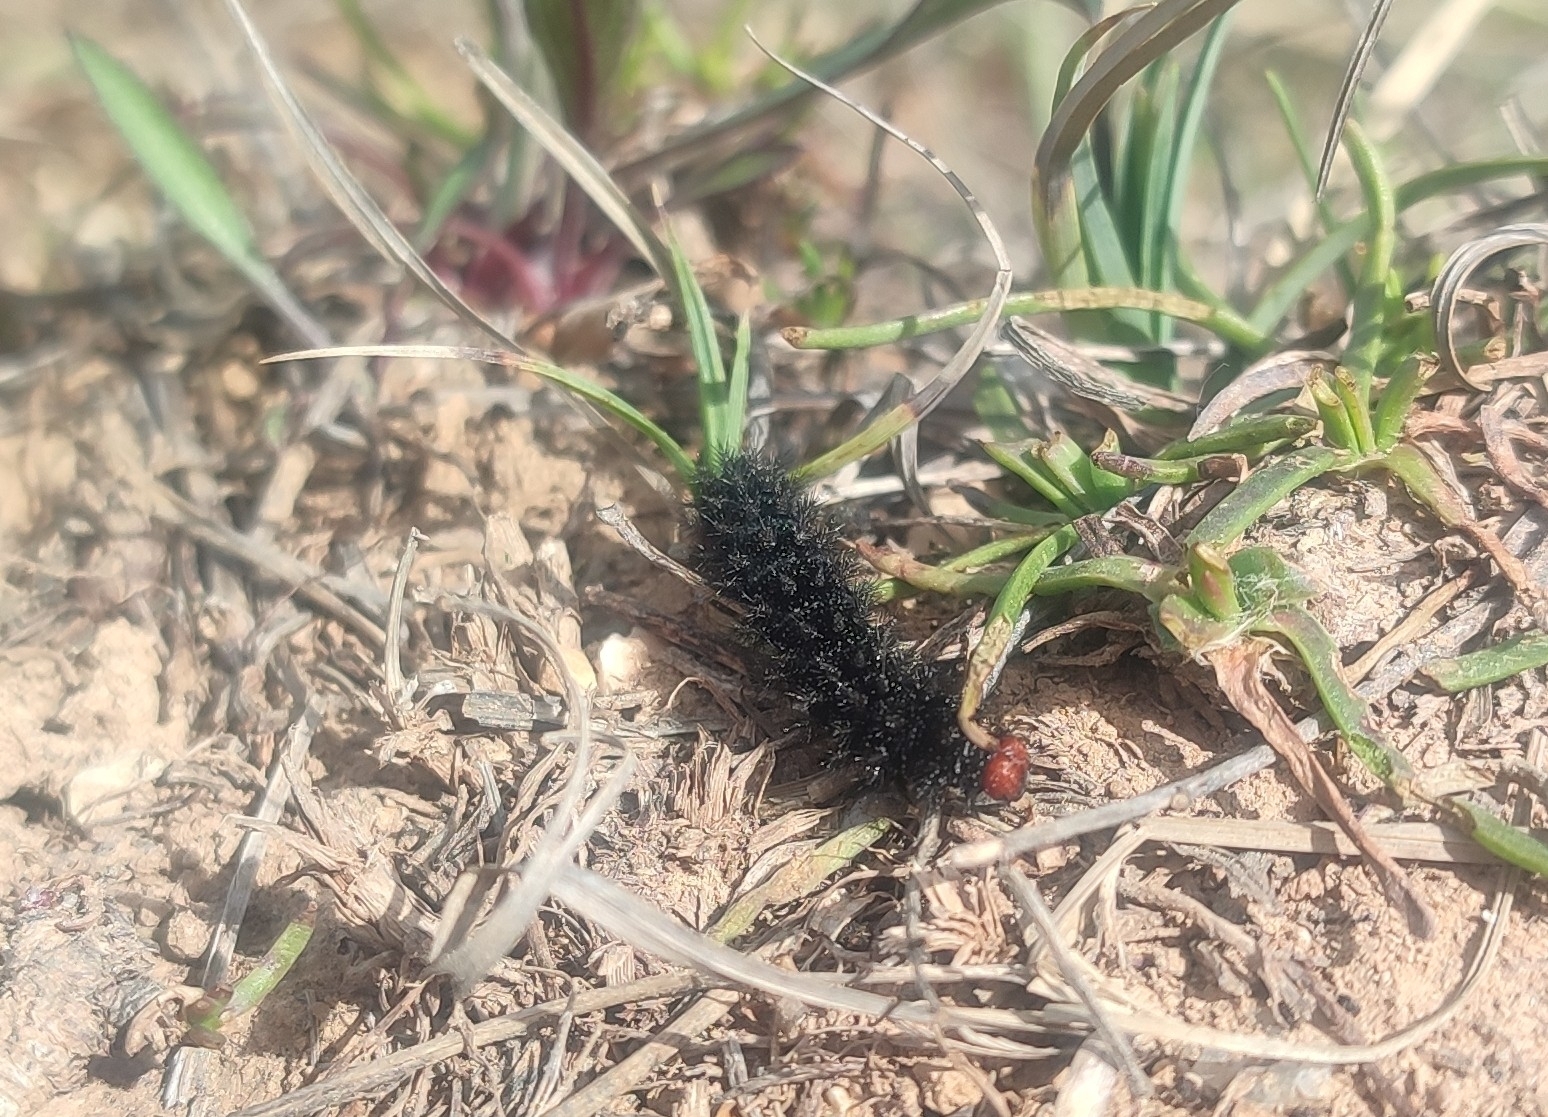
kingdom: Animalia
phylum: Arthropoda
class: Insecta
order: Lepidoptera
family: Nymphalidae
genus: Melitaea
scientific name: Melitaea cinxia
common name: Glanville fritillary
